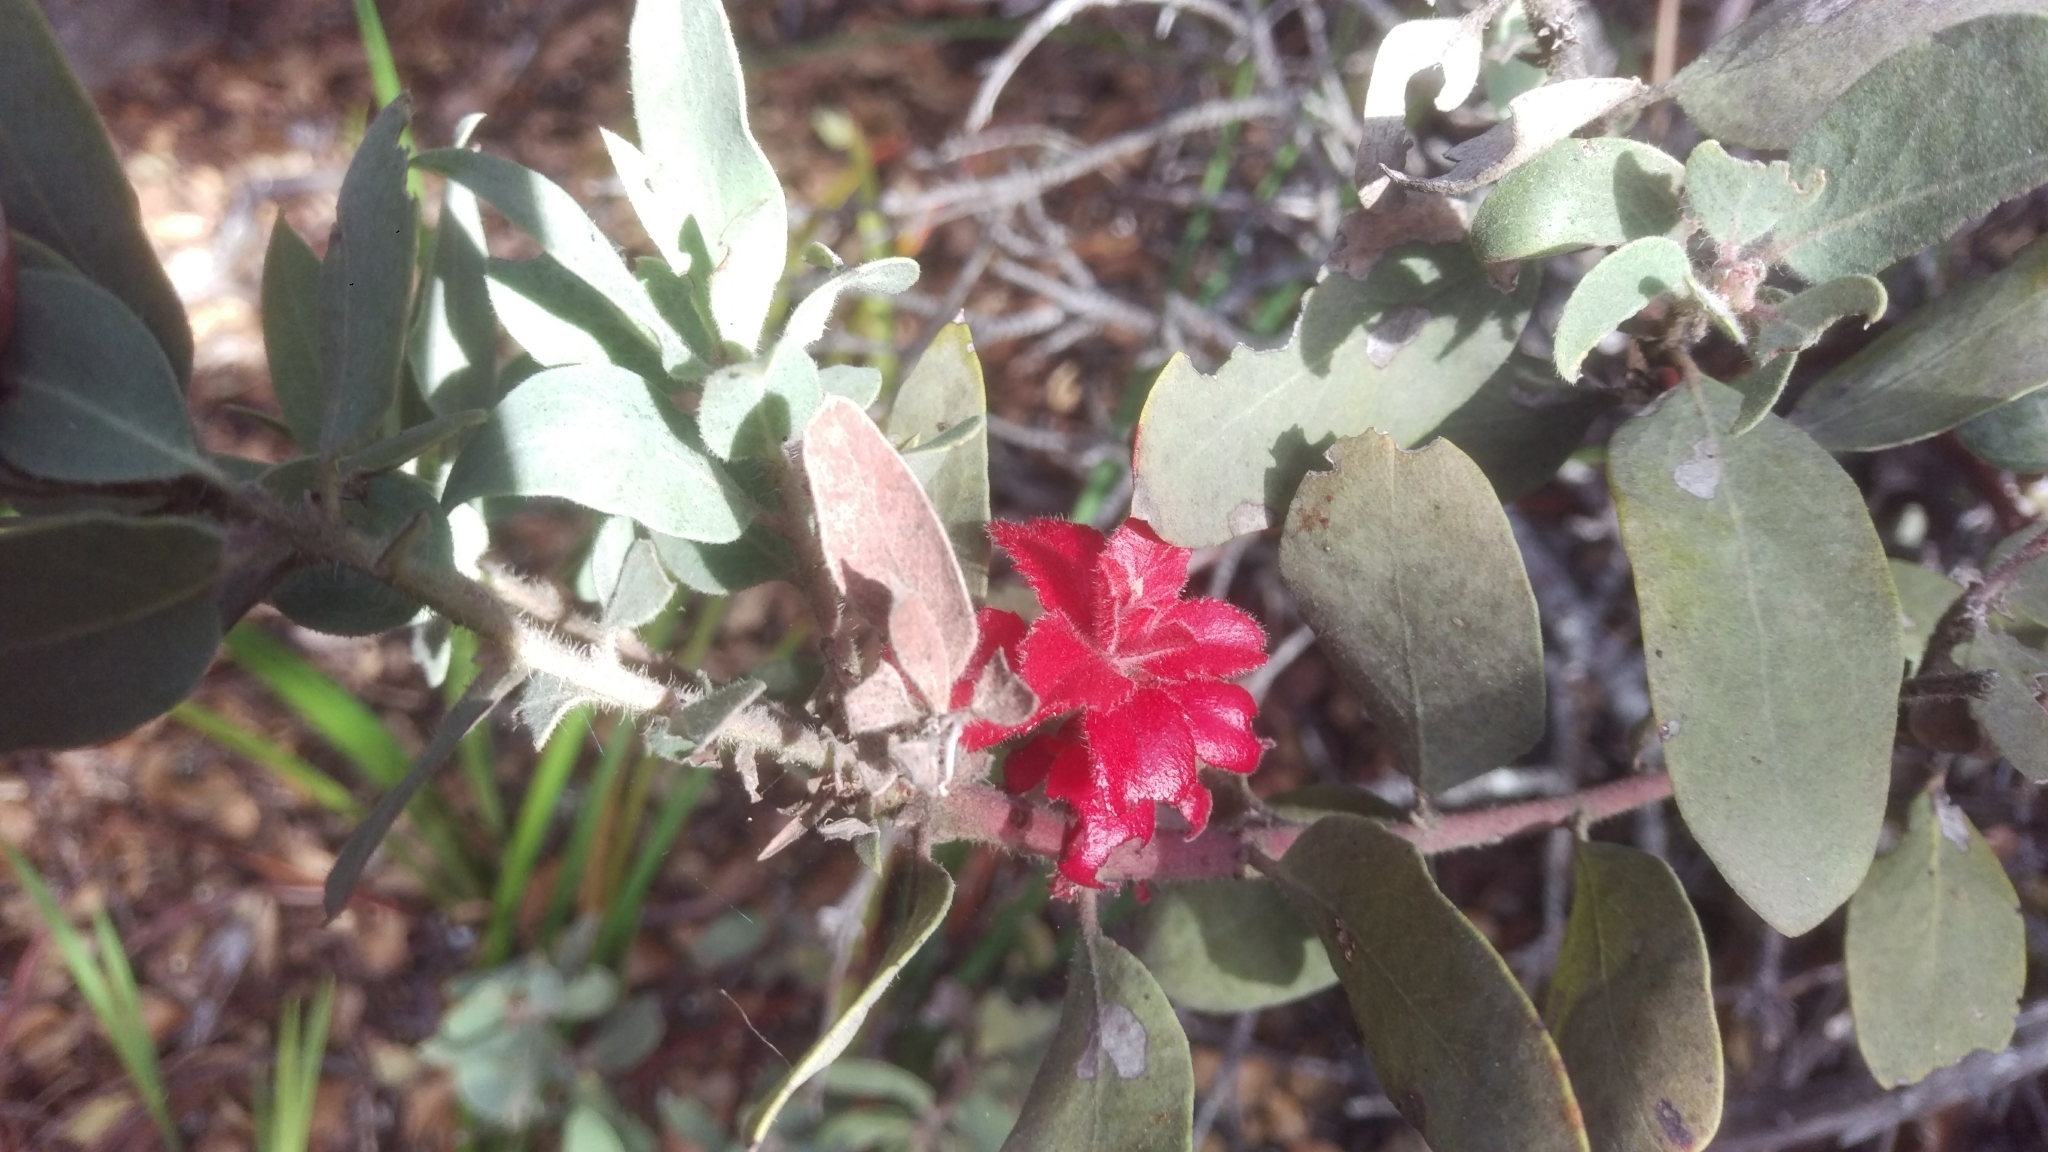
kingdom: Plantae
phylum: Tracheophyta
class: Magnoliopsida
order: Ericales
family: Ericaceae
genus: Arctostaphylos
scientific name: Arctostaphylos glandulosa
